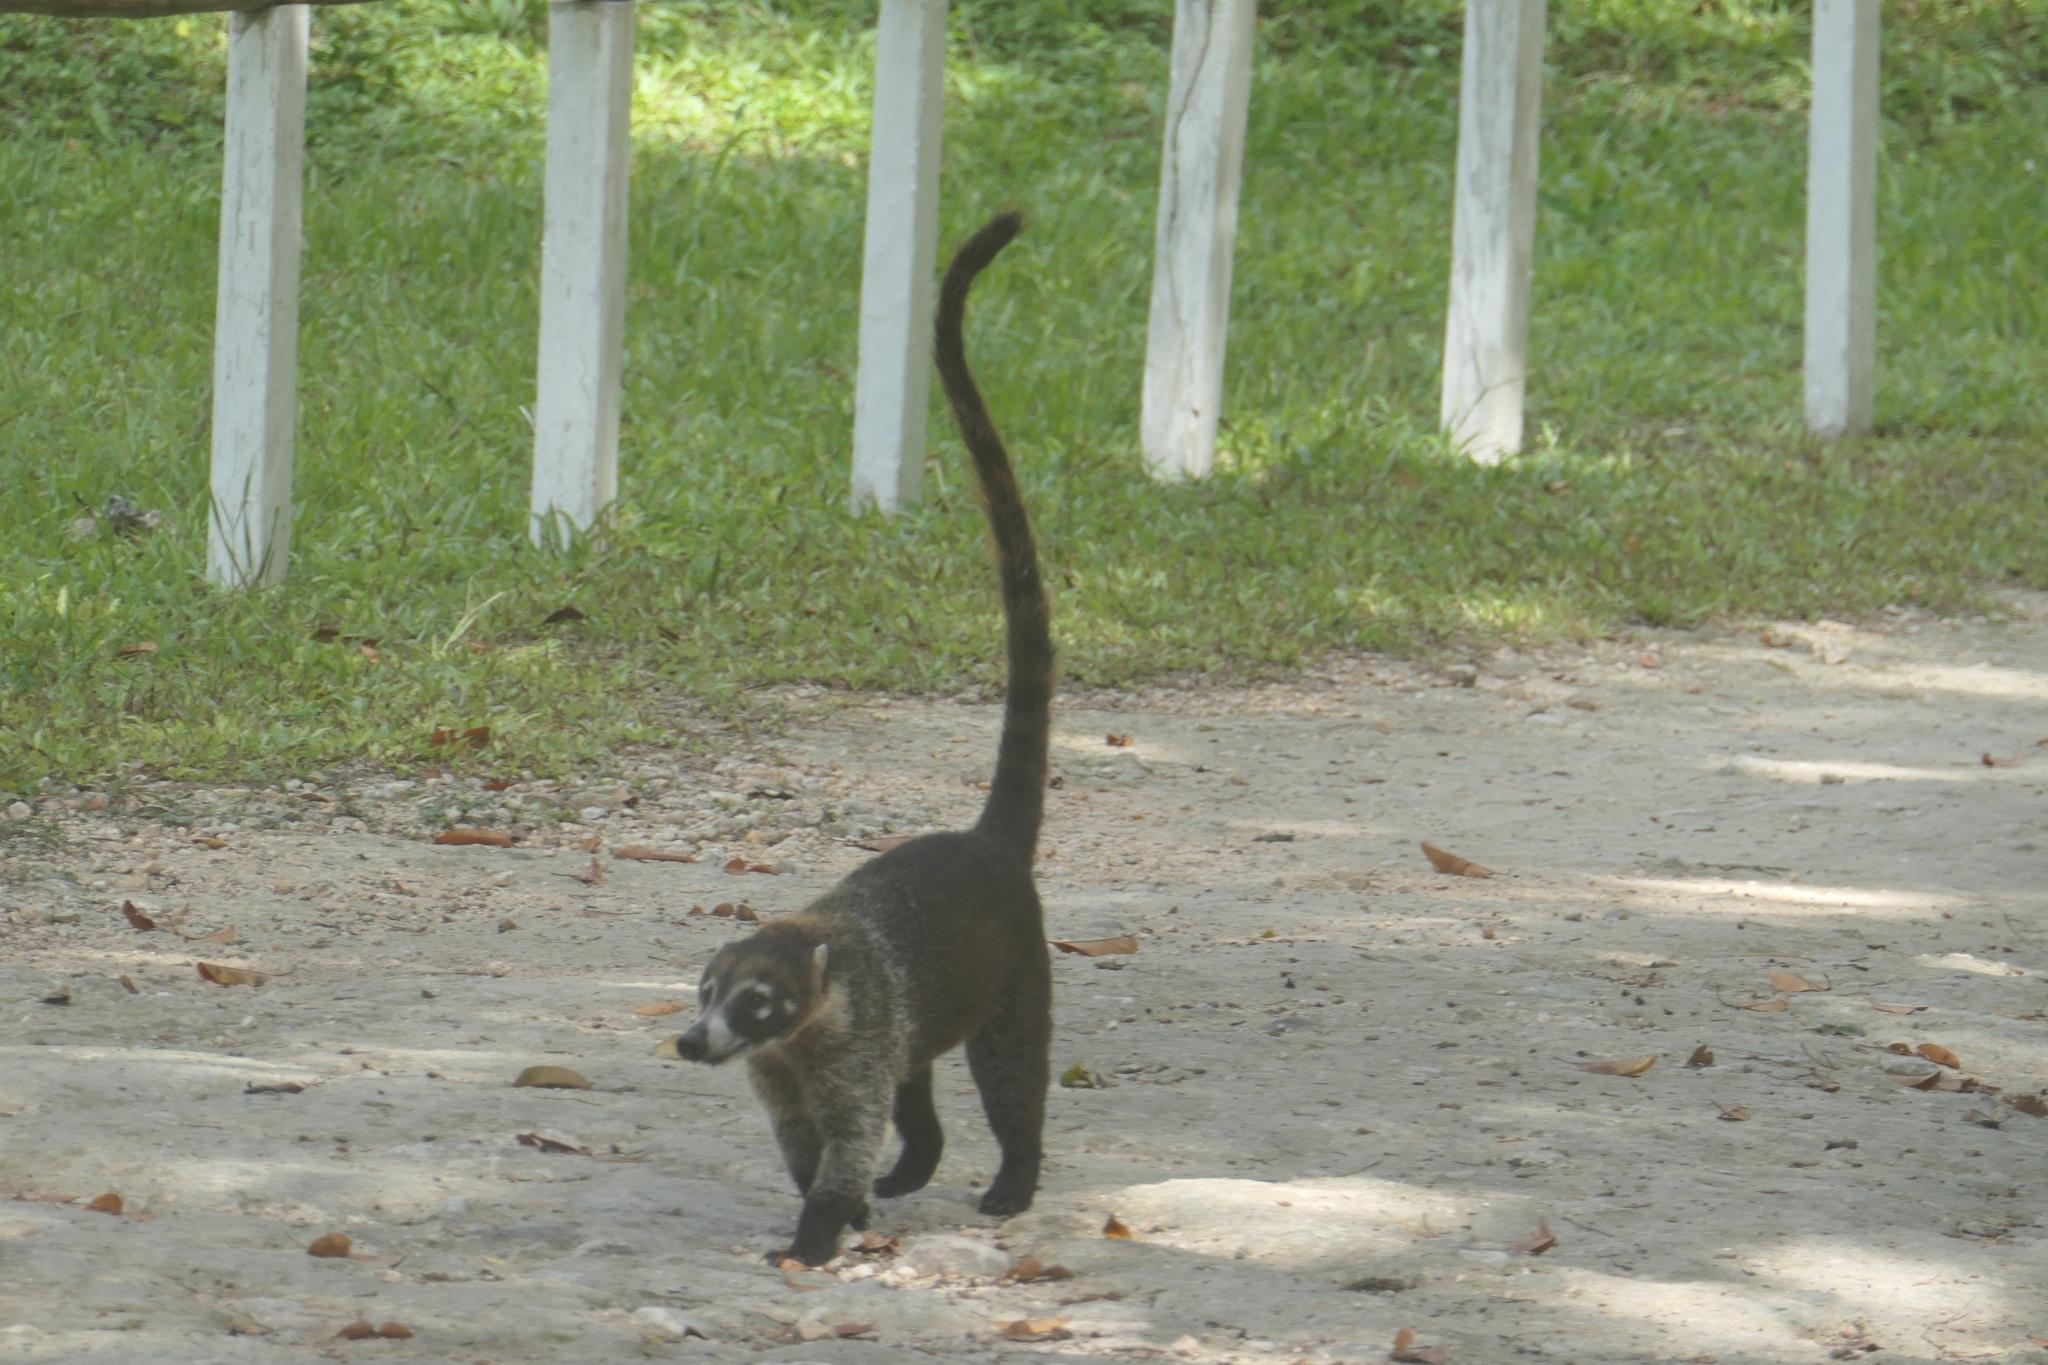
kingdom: Animalia
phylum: Chordata
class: Mammalia
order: Carnivora
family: Procyonidae
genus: Nasua
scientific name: Nasua narica
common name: White-nosed coati
